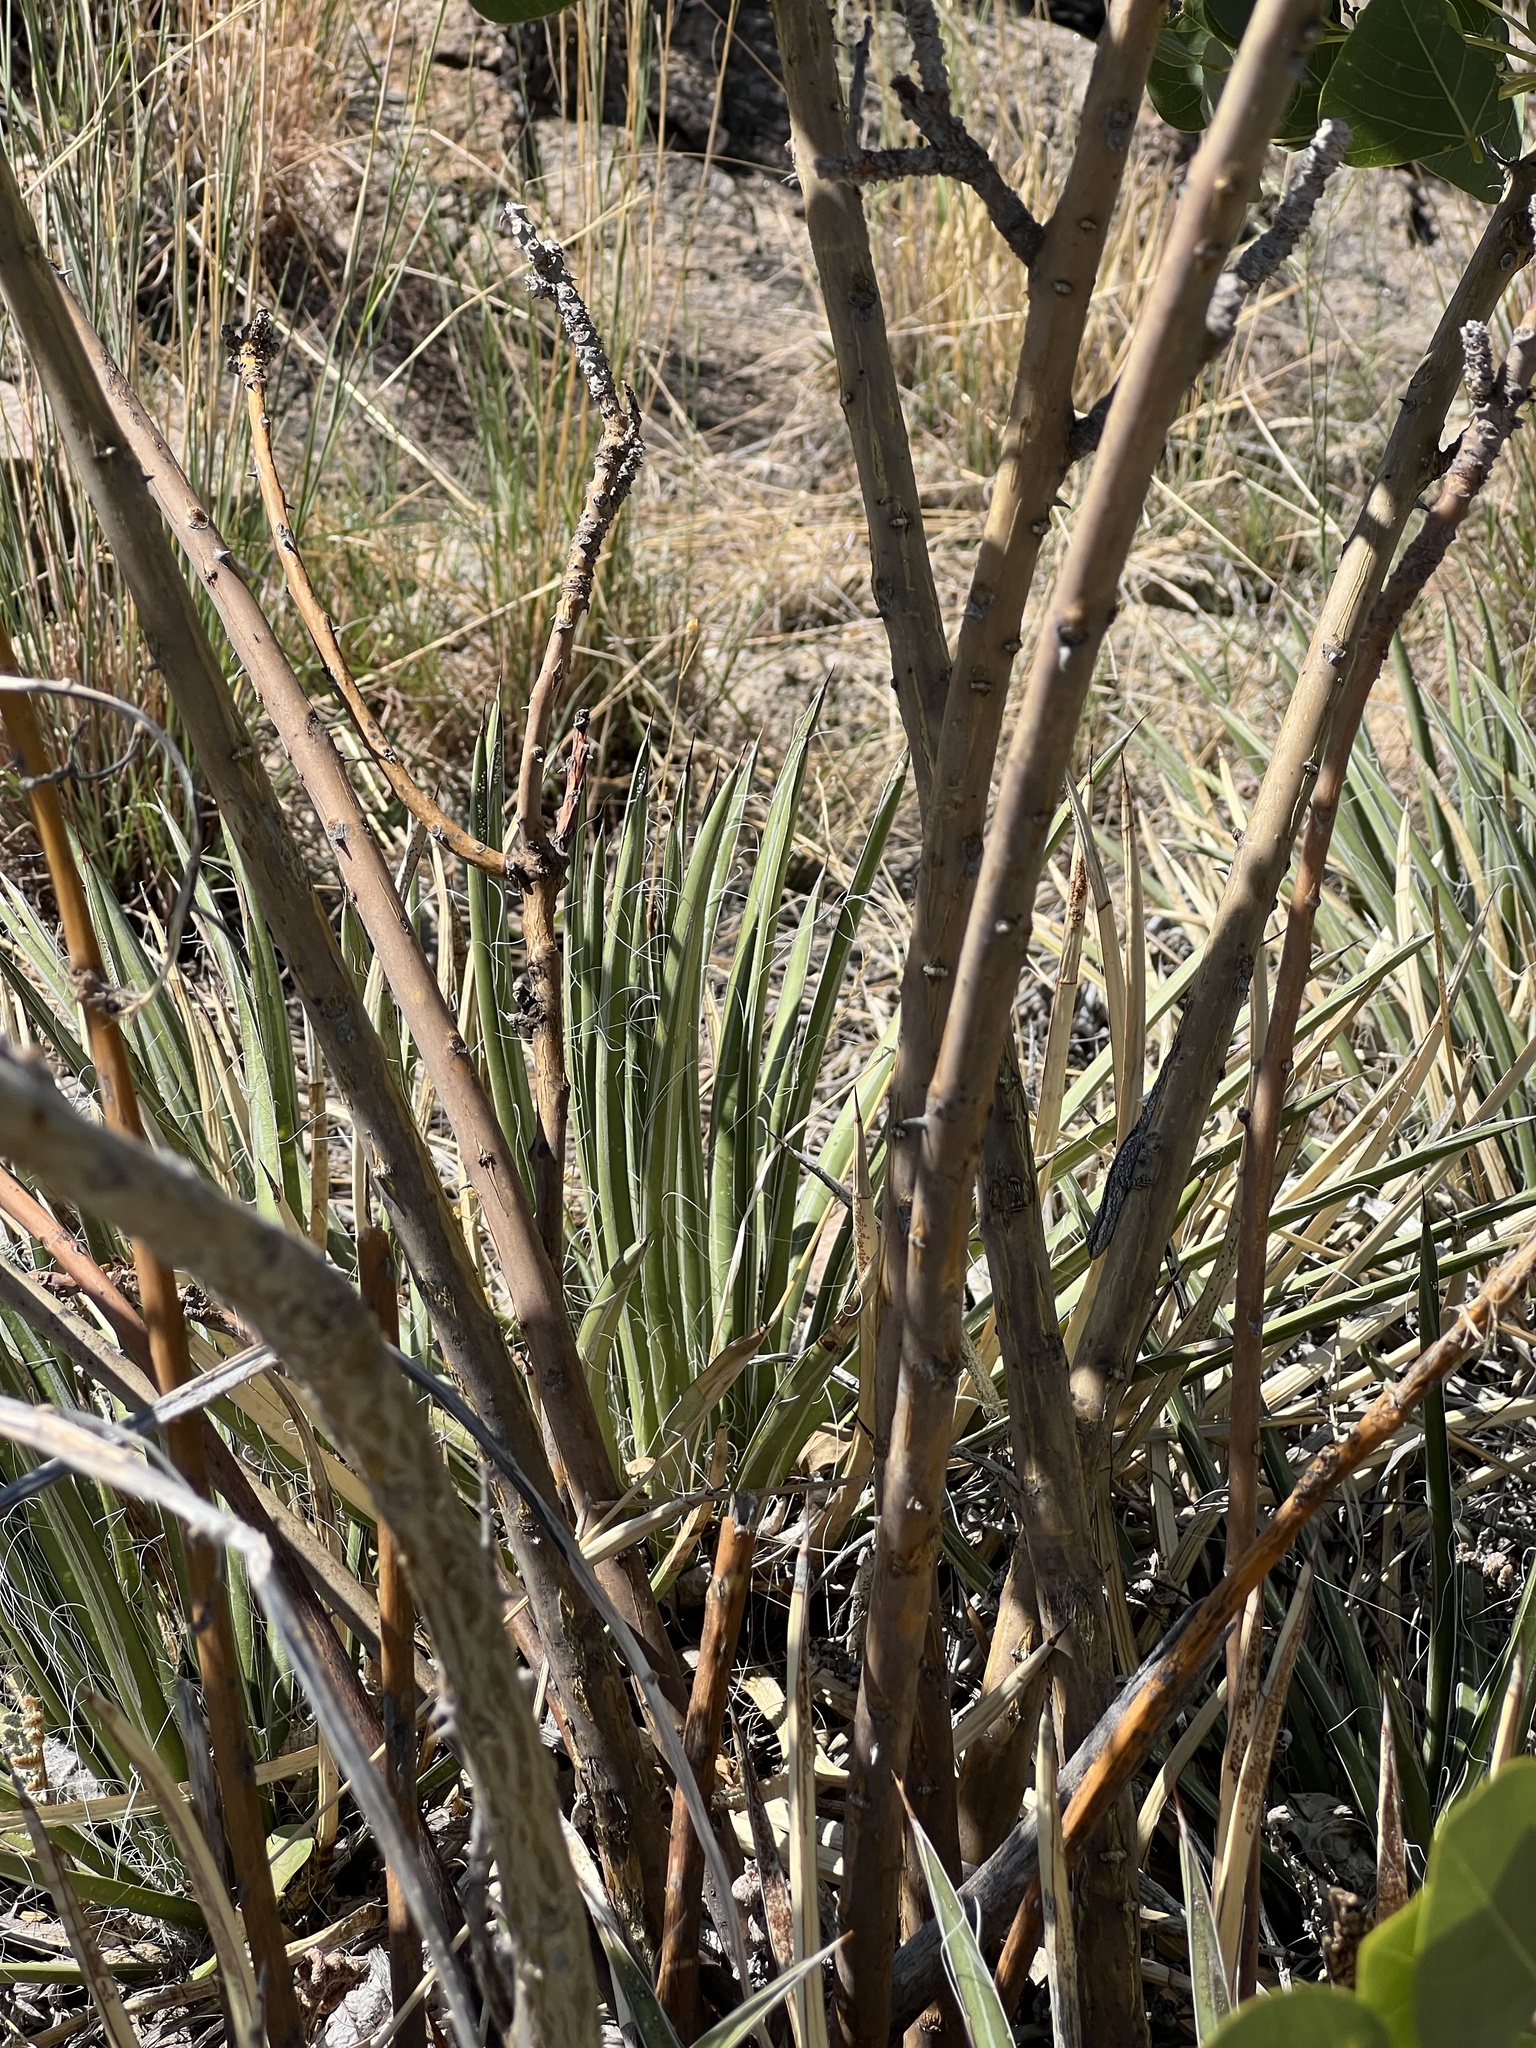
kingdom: Plantae
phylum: Tracheophyta
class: Liliopsida
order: Asparagales
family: Asparagaceae
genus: Agave
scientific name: Agave schottii
